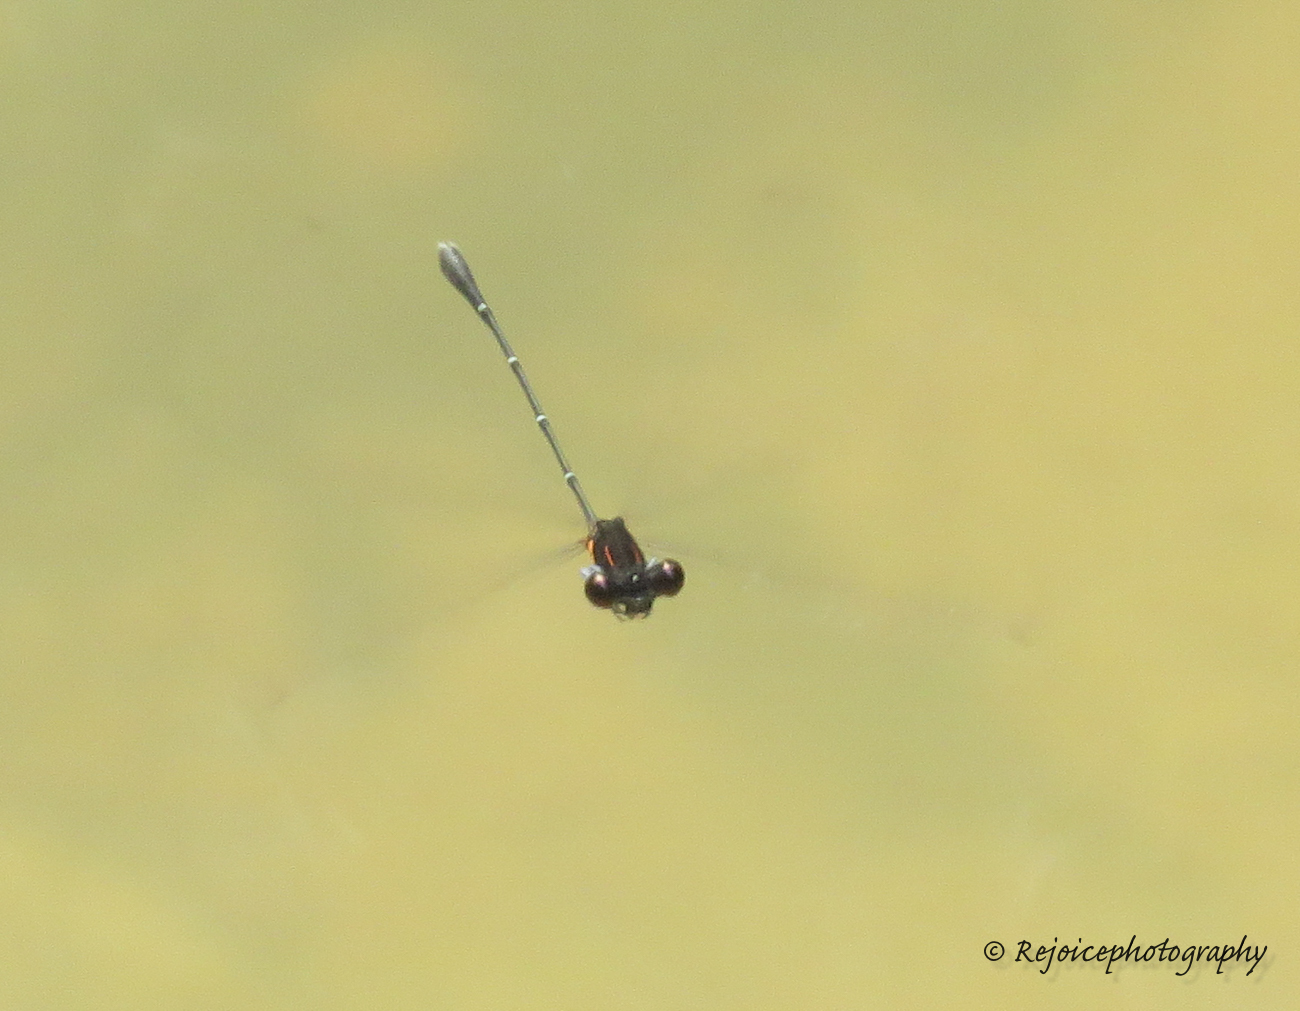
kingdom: Animalia
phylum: Arthropoda
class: Insecta
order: Odonata
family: Platycnemididae
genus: Prodasineura
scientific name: Prodasineura verticalis
